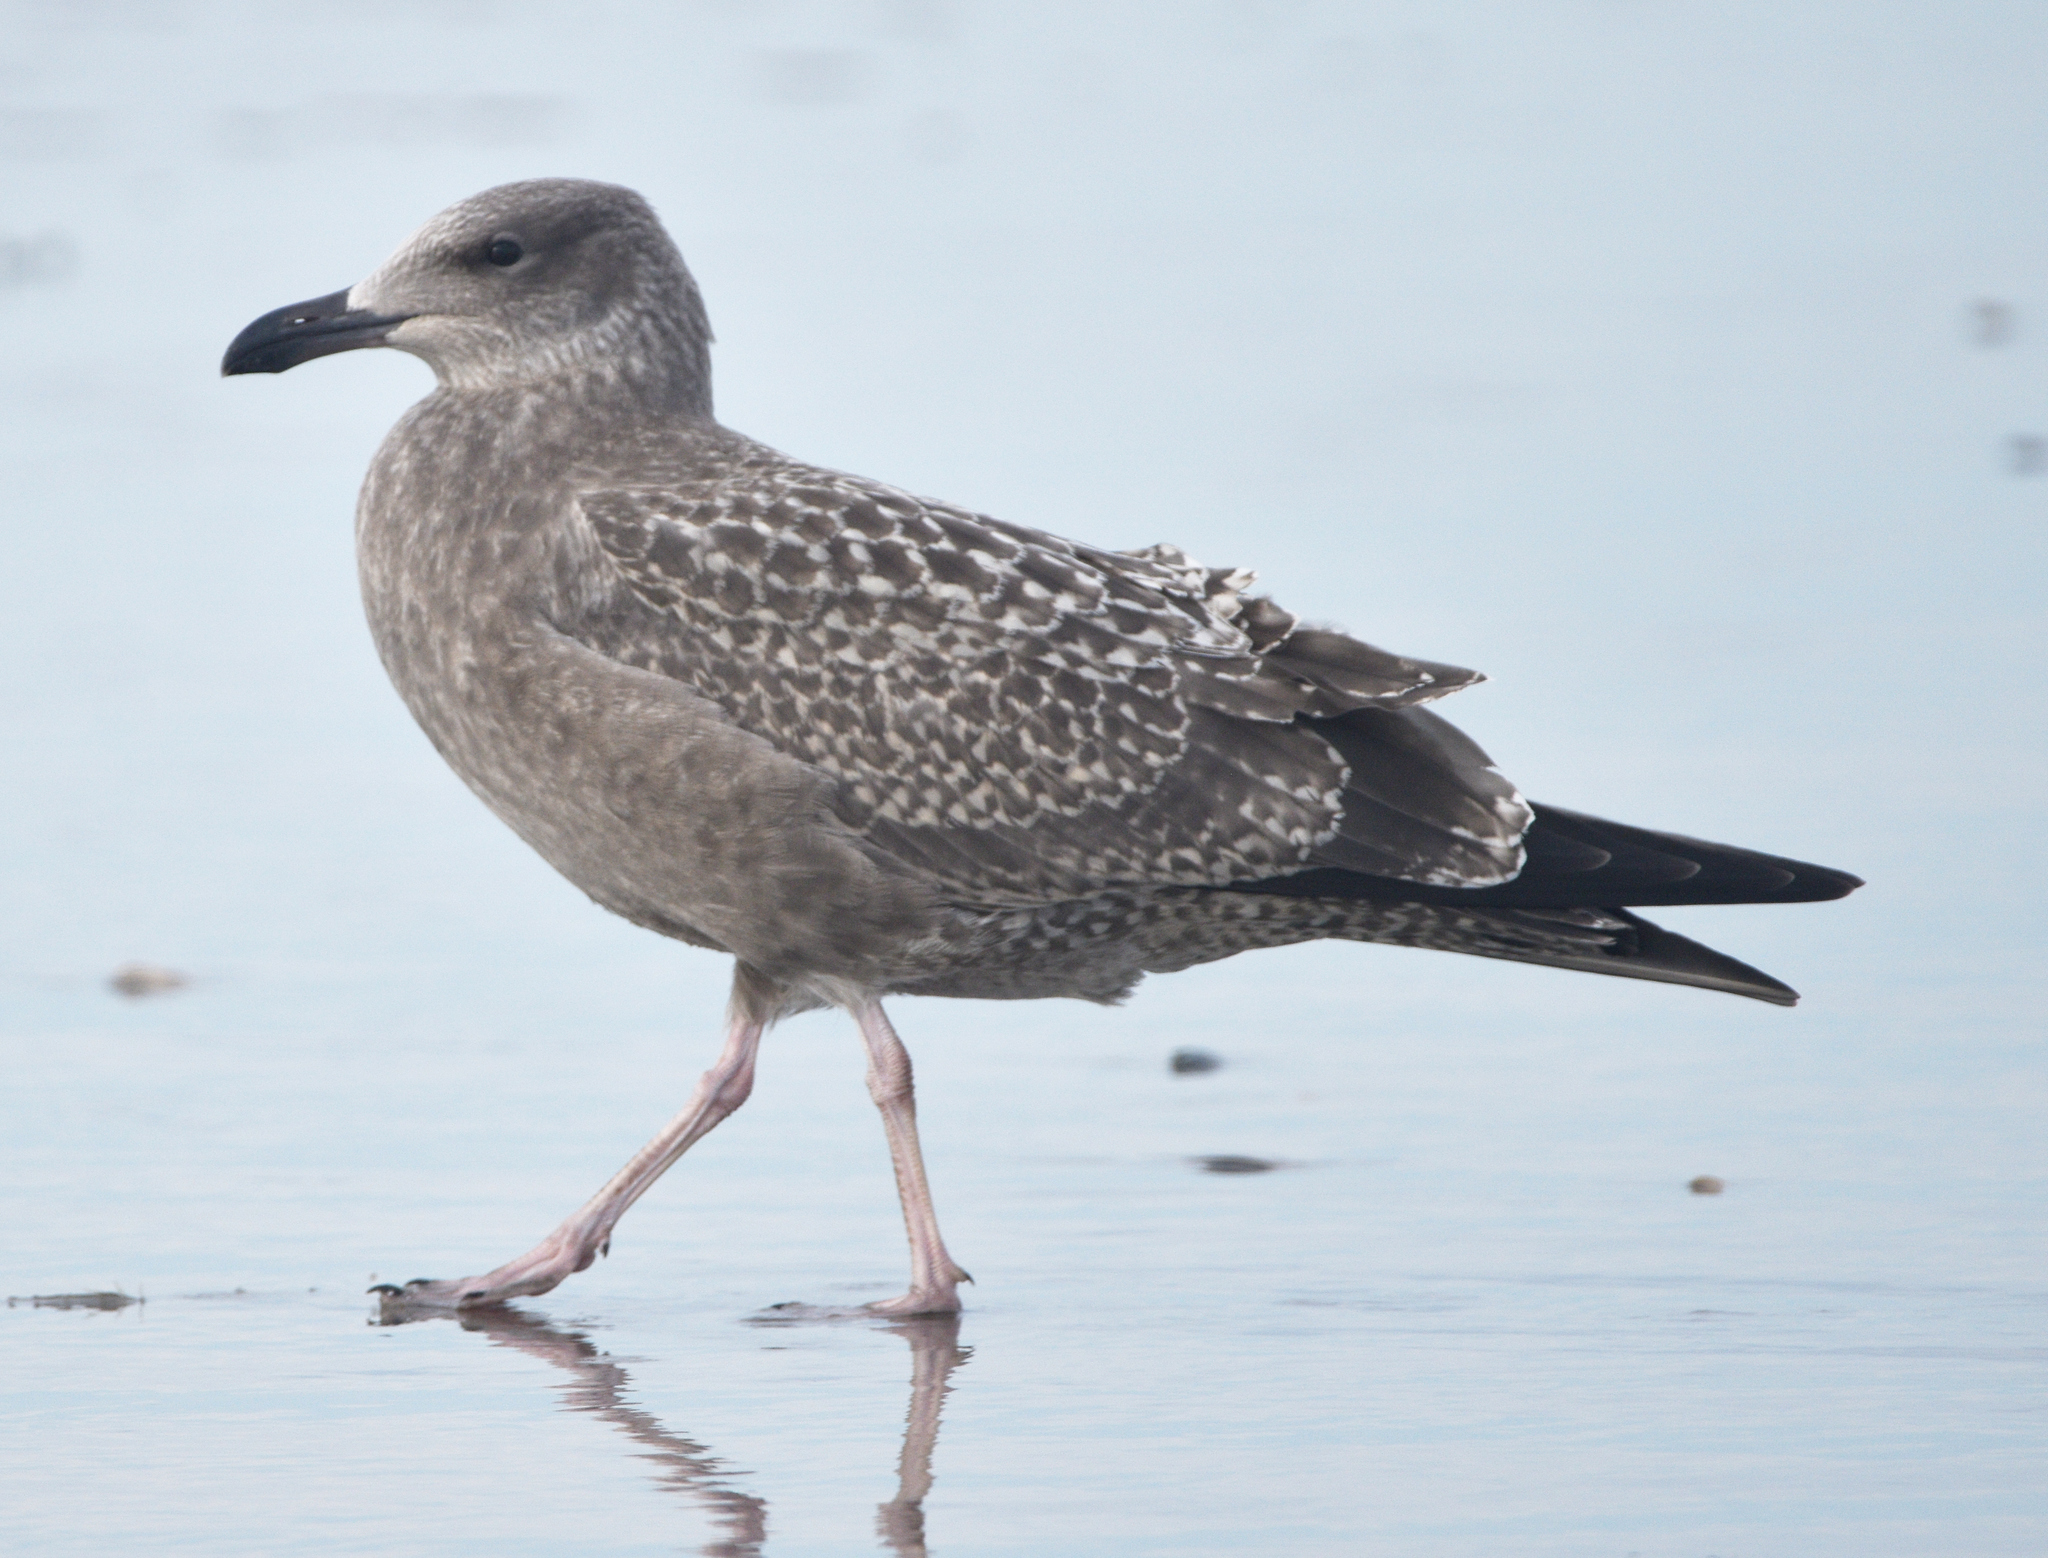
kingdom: Animalia
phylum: Chordata
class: Aves
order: Charadriiformes
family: Laridae
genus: Larus
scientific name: Larus argentatus
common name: Herring gull
